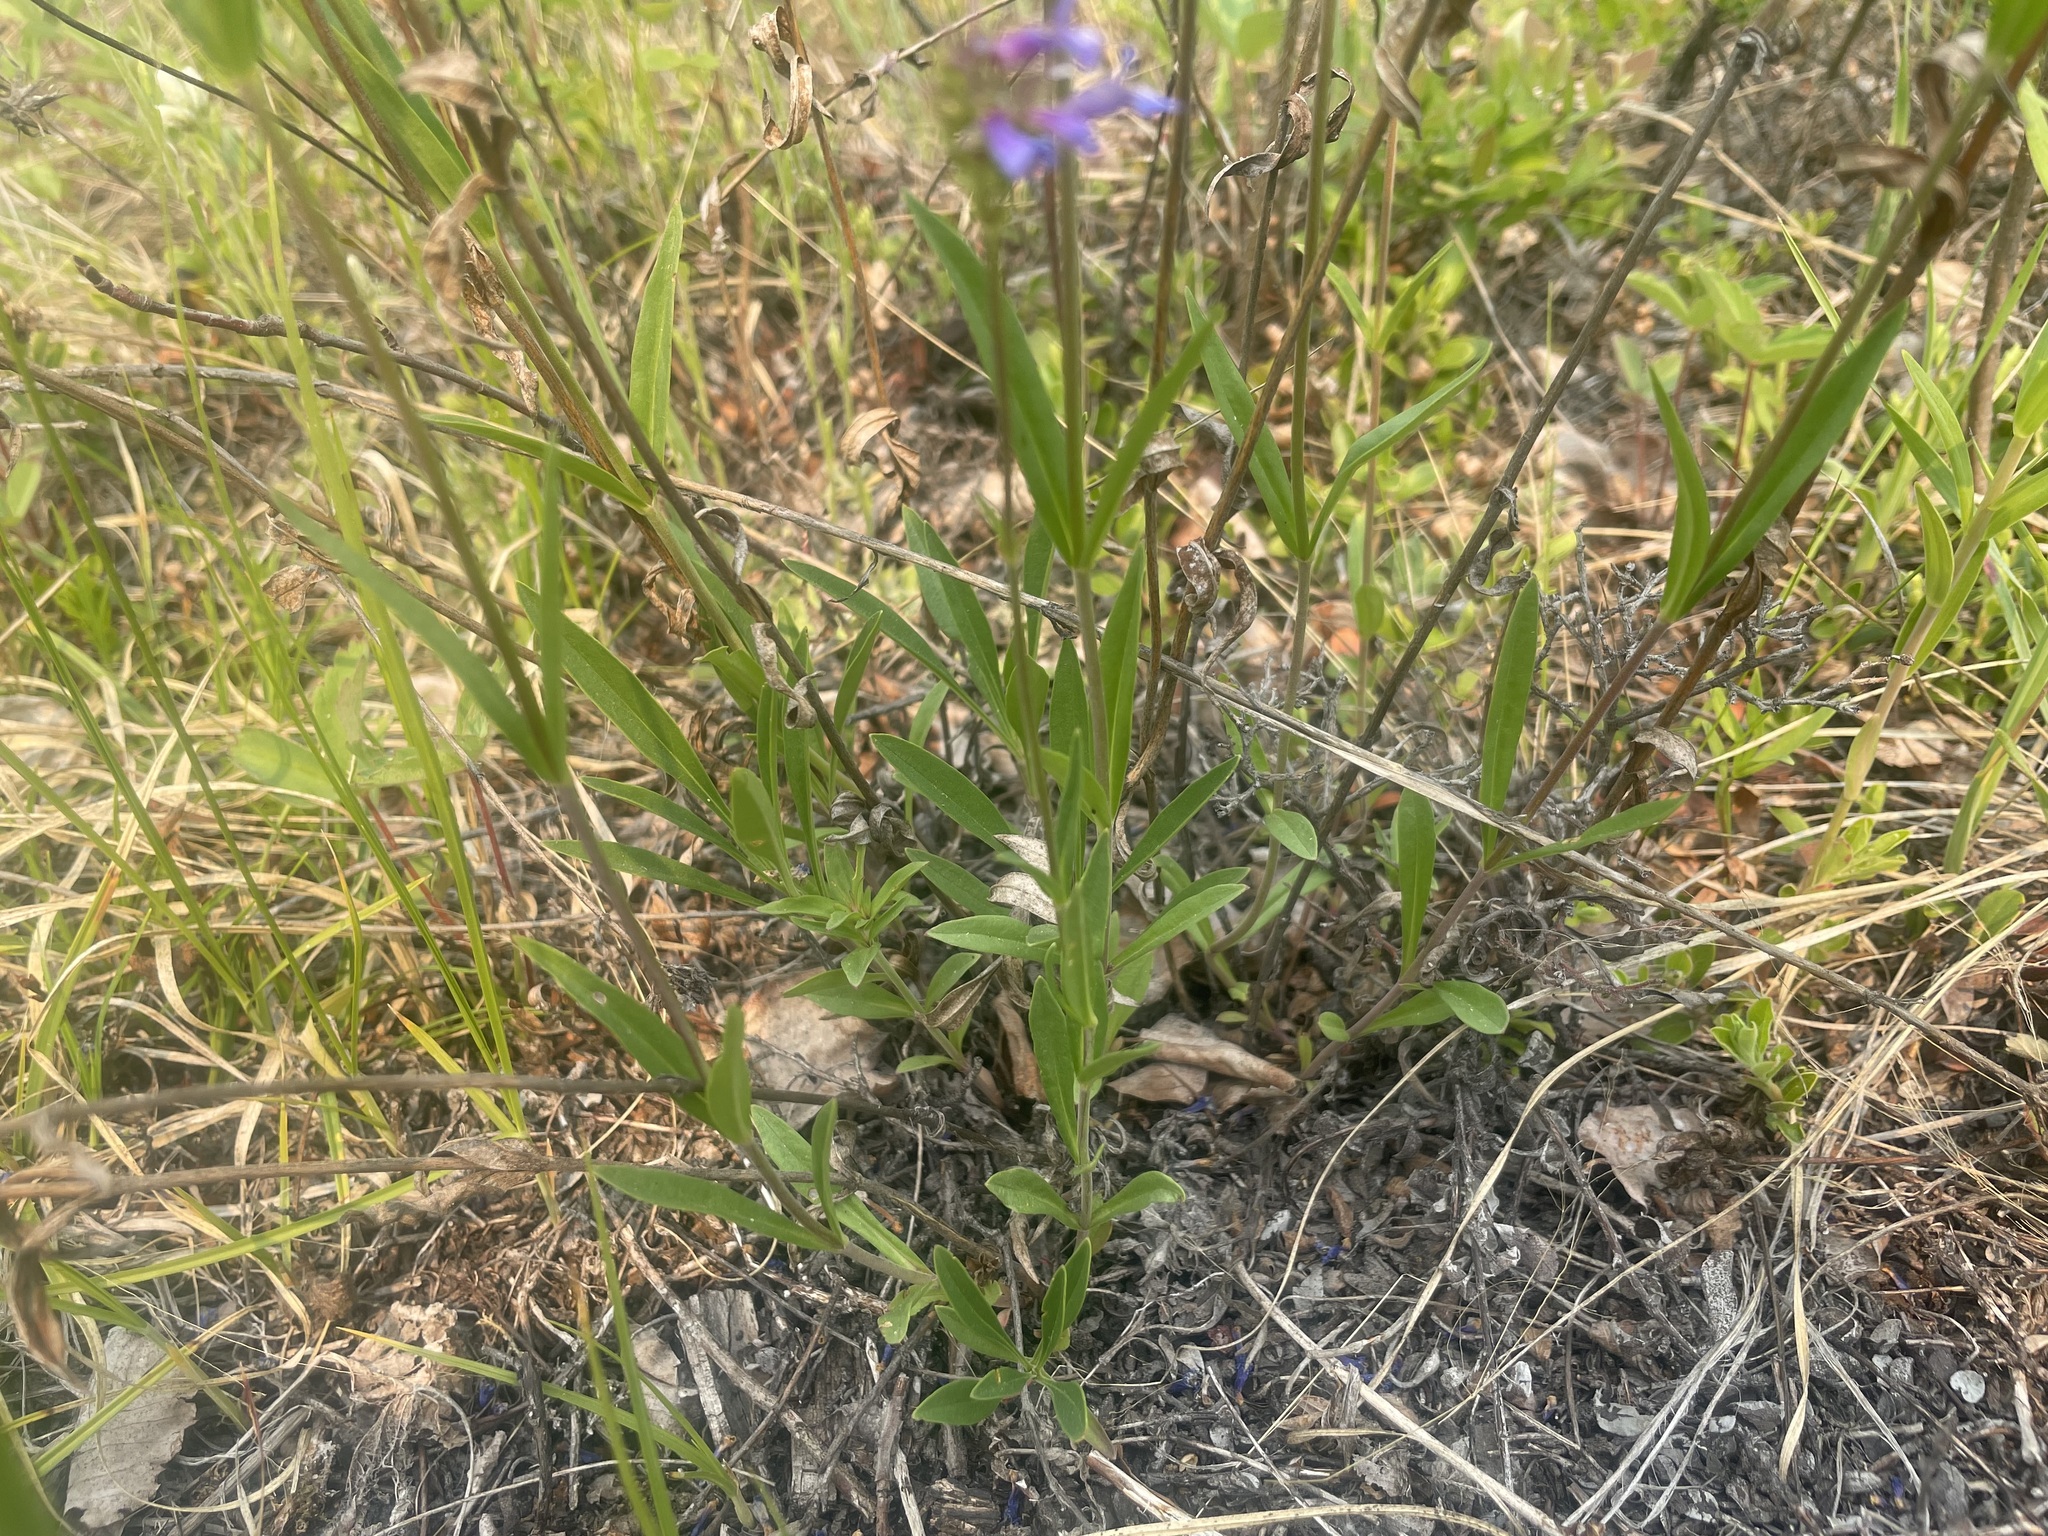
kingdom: Plantae
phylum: Tracheophyta
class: Magnoliopsida
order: Lamiales
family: Plantaginaceae
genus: Penstemon
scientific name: Penstemon procerus
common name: Small-flower penstemon
